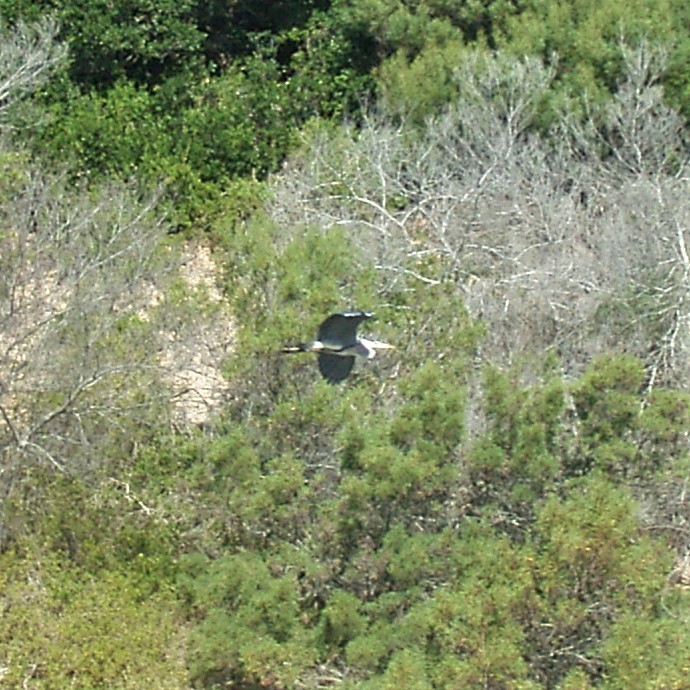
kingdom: Animalia
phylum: Chordata
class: Aves
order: Pelecaniformes
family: Ardeidae
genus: Ardea
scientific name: Ardea cinerea
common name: Grey heron
